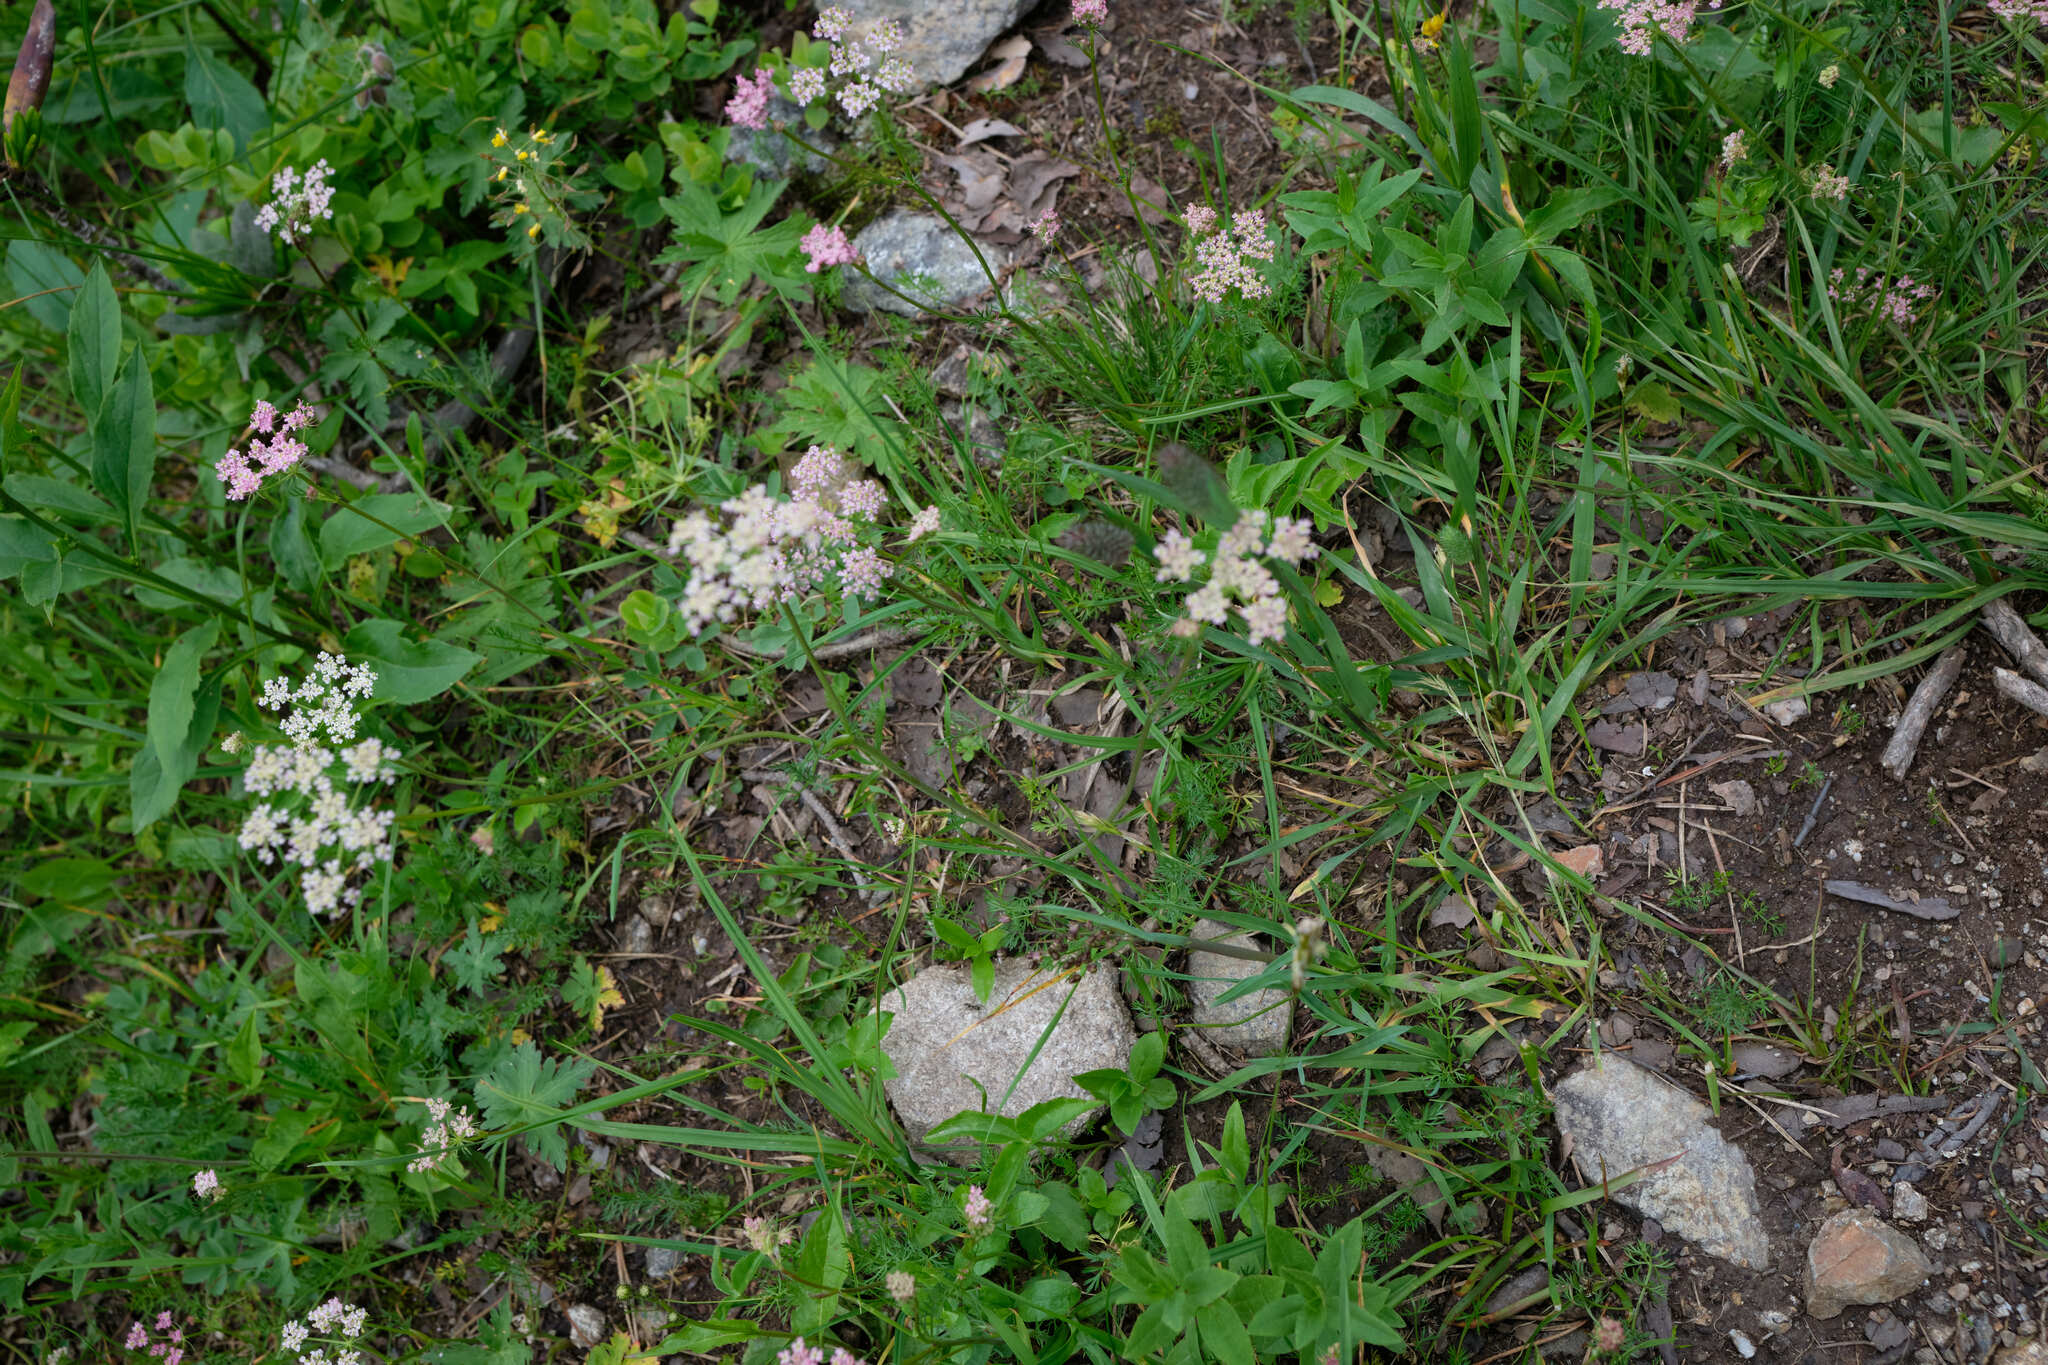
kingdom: Plantae
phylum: Tracheophyta
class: Magnoliopsida
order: Apiales
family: Apiaceae
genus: Carum
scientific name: Carum carvi
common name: Caraway
